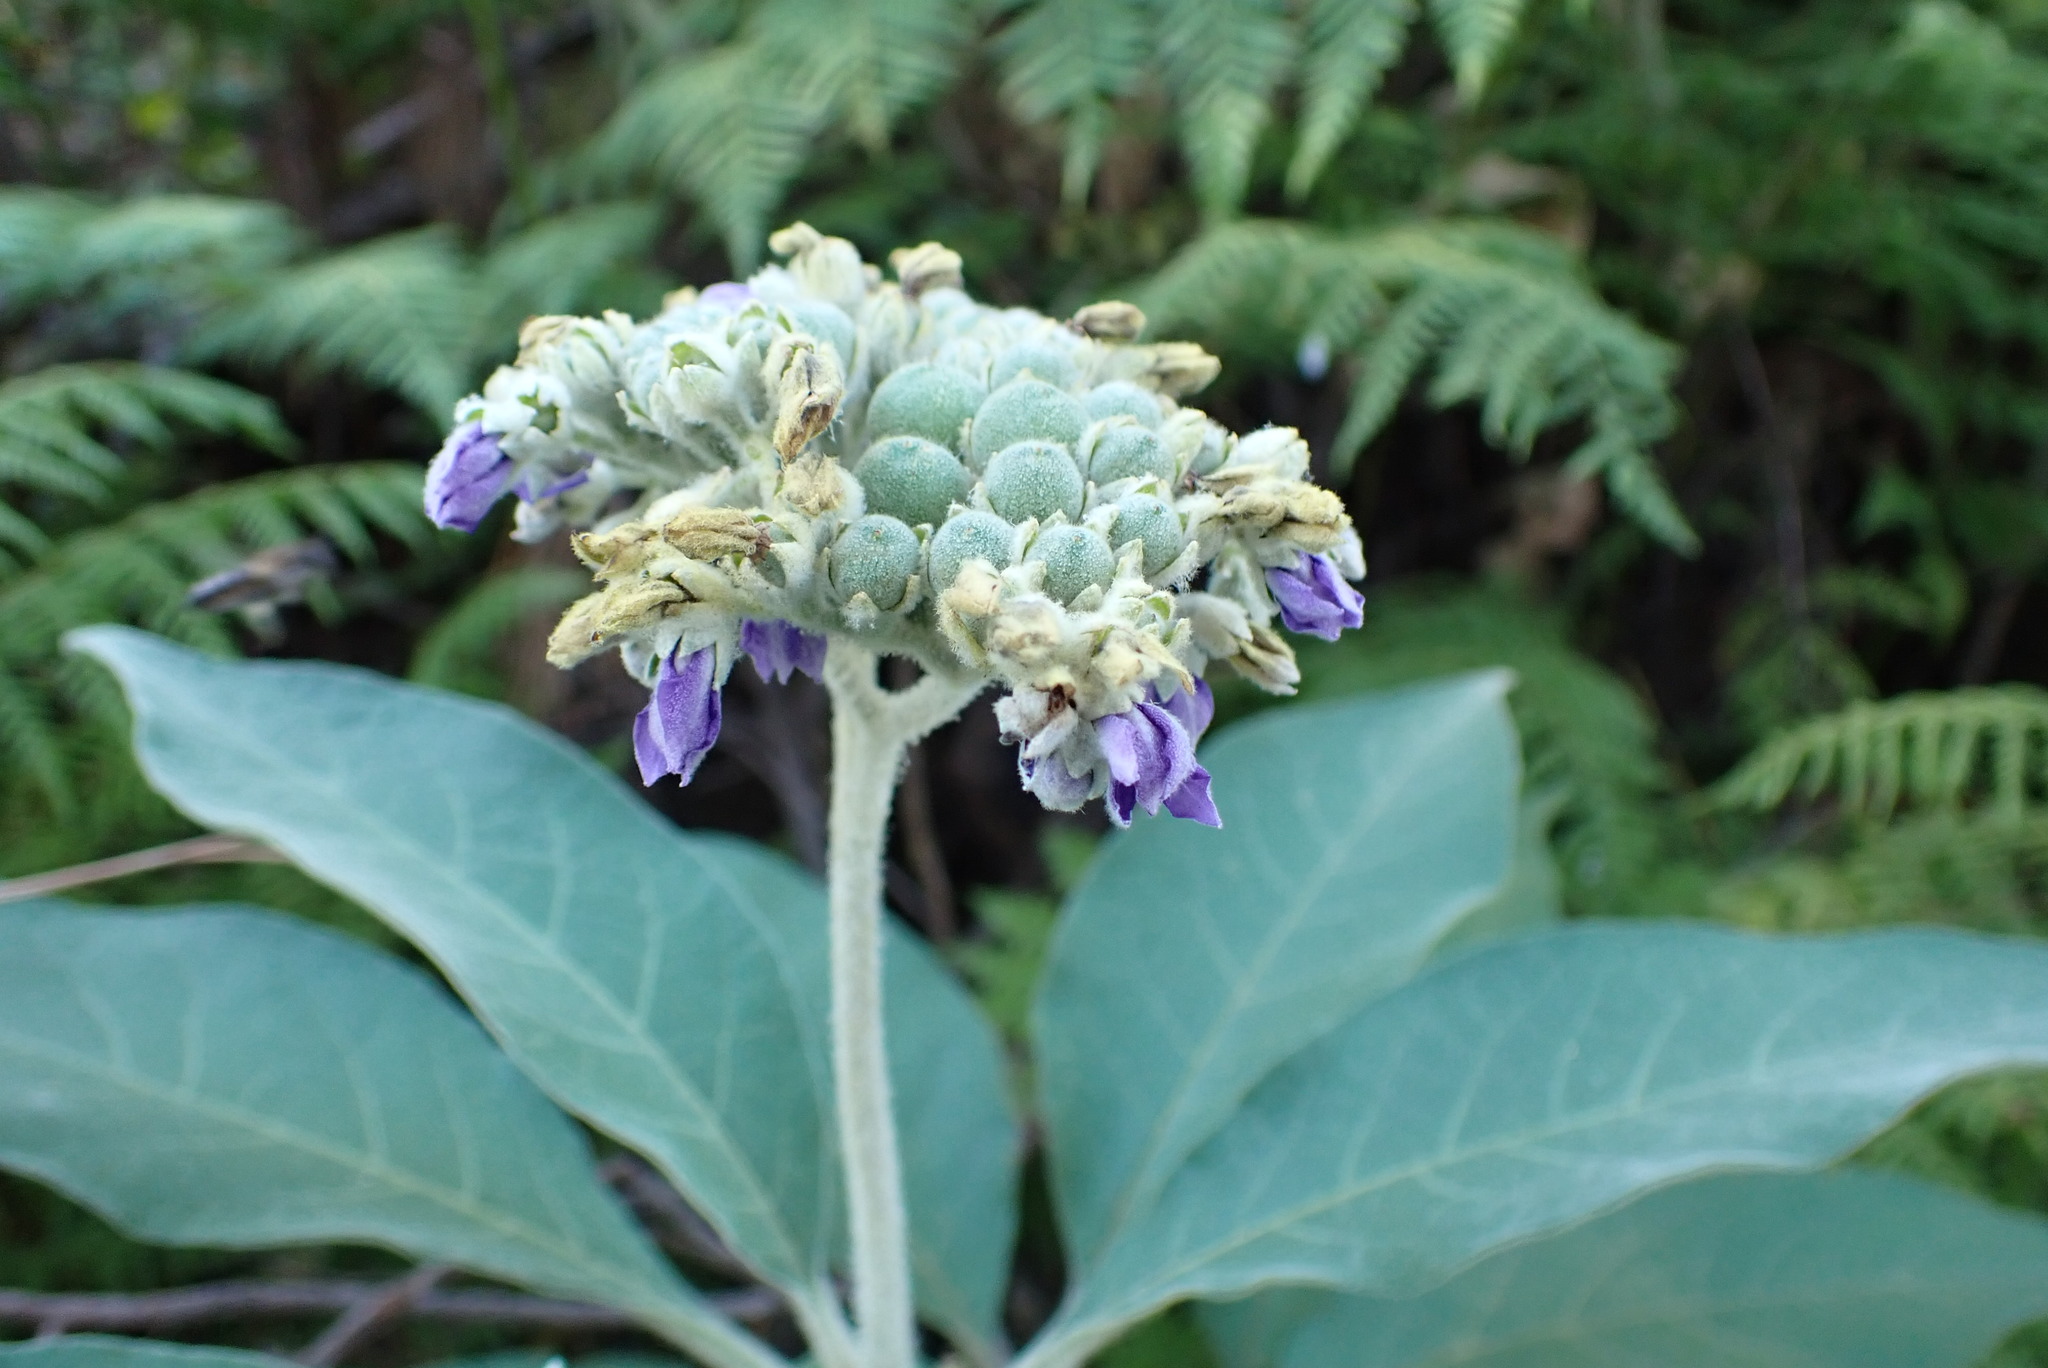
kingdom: Plantae
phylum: Tracheophyta
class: Magnoliopsida
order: Solanales
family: Solanaceae
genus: Solanum
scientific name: Solanum mauritianum
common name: Earleaf nightshade
